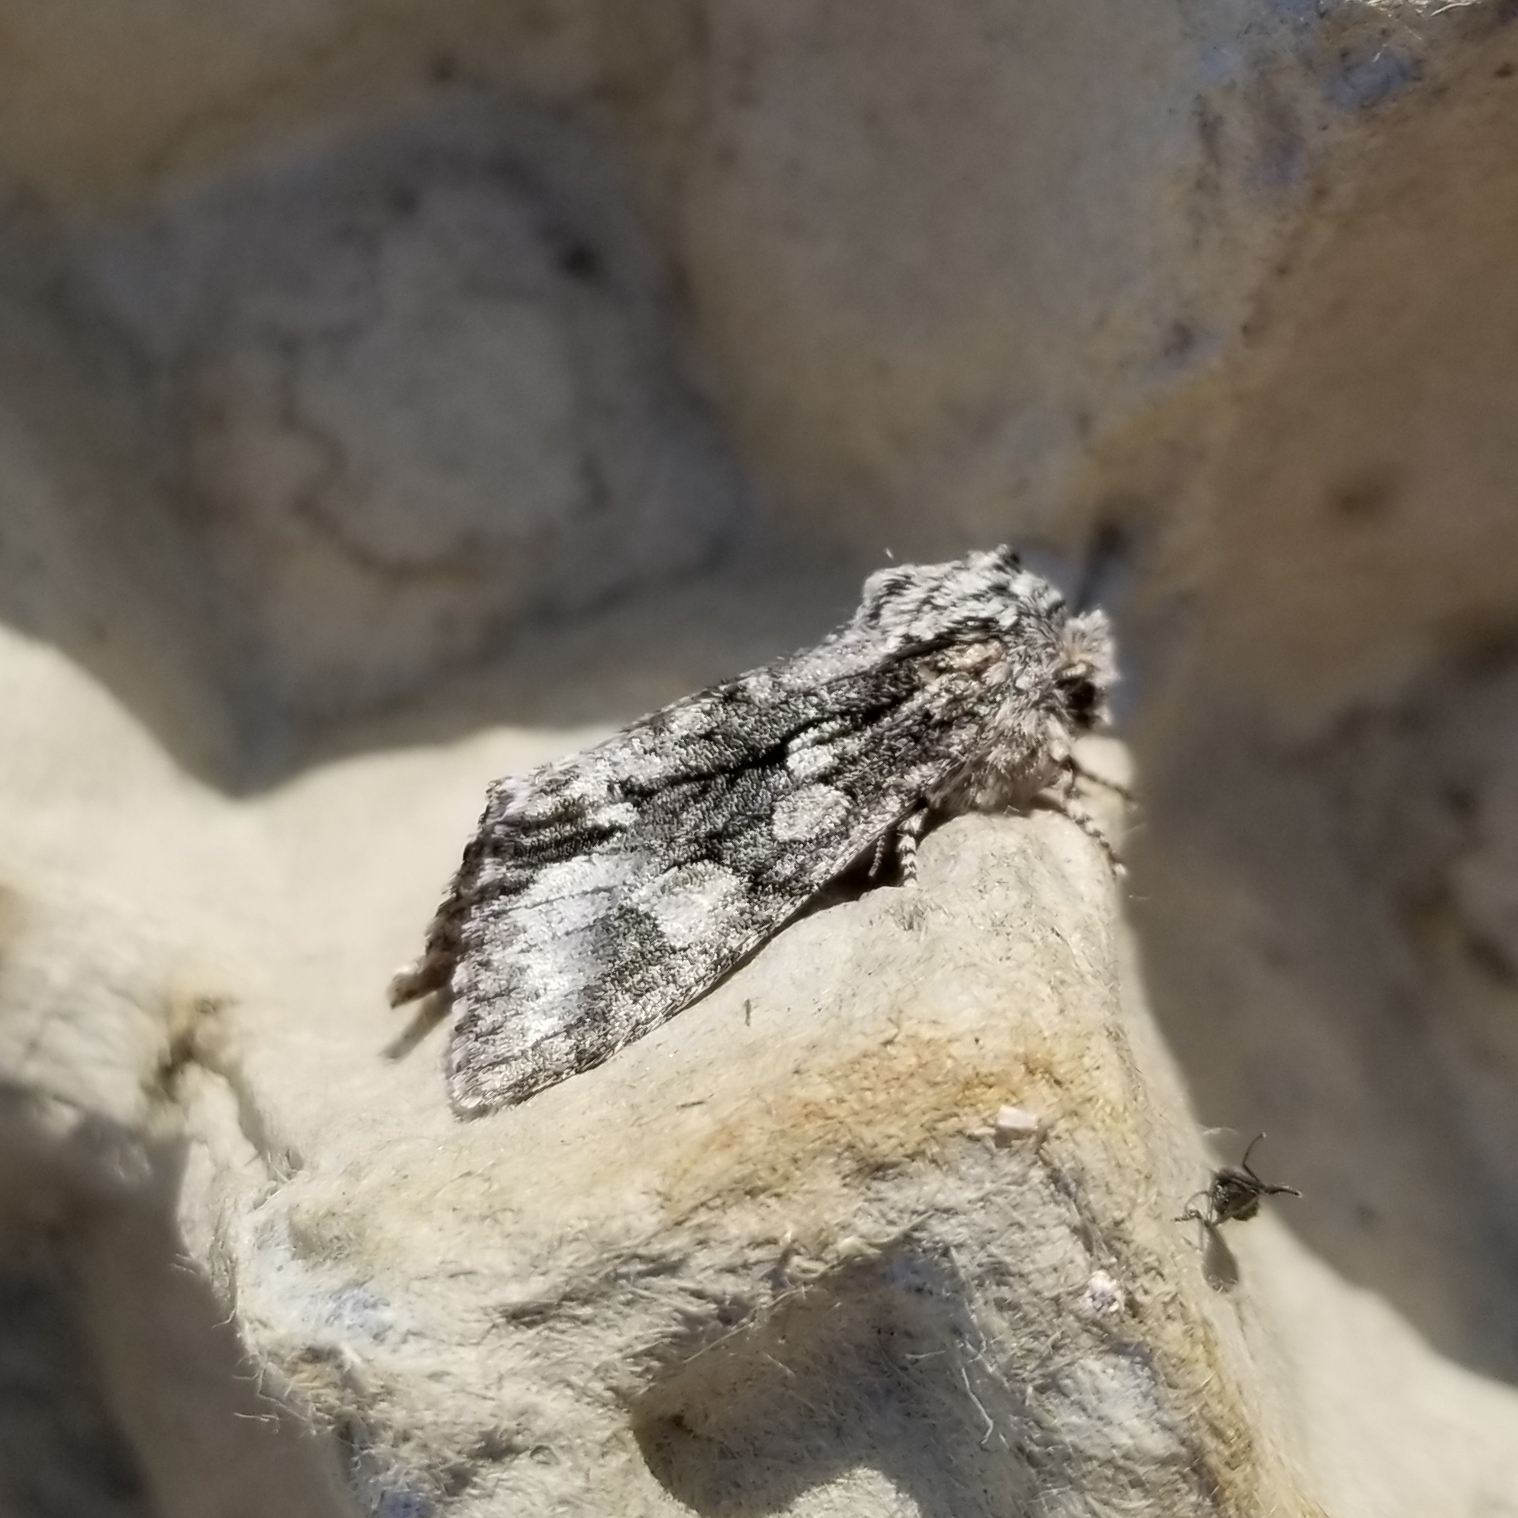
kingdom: Animalia
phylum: Arthropoda
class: Insecta
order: Lepidoptera
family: Noctuidae
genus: Psaphida
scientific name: Psaphida resumens
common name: Figure-eight sallow
